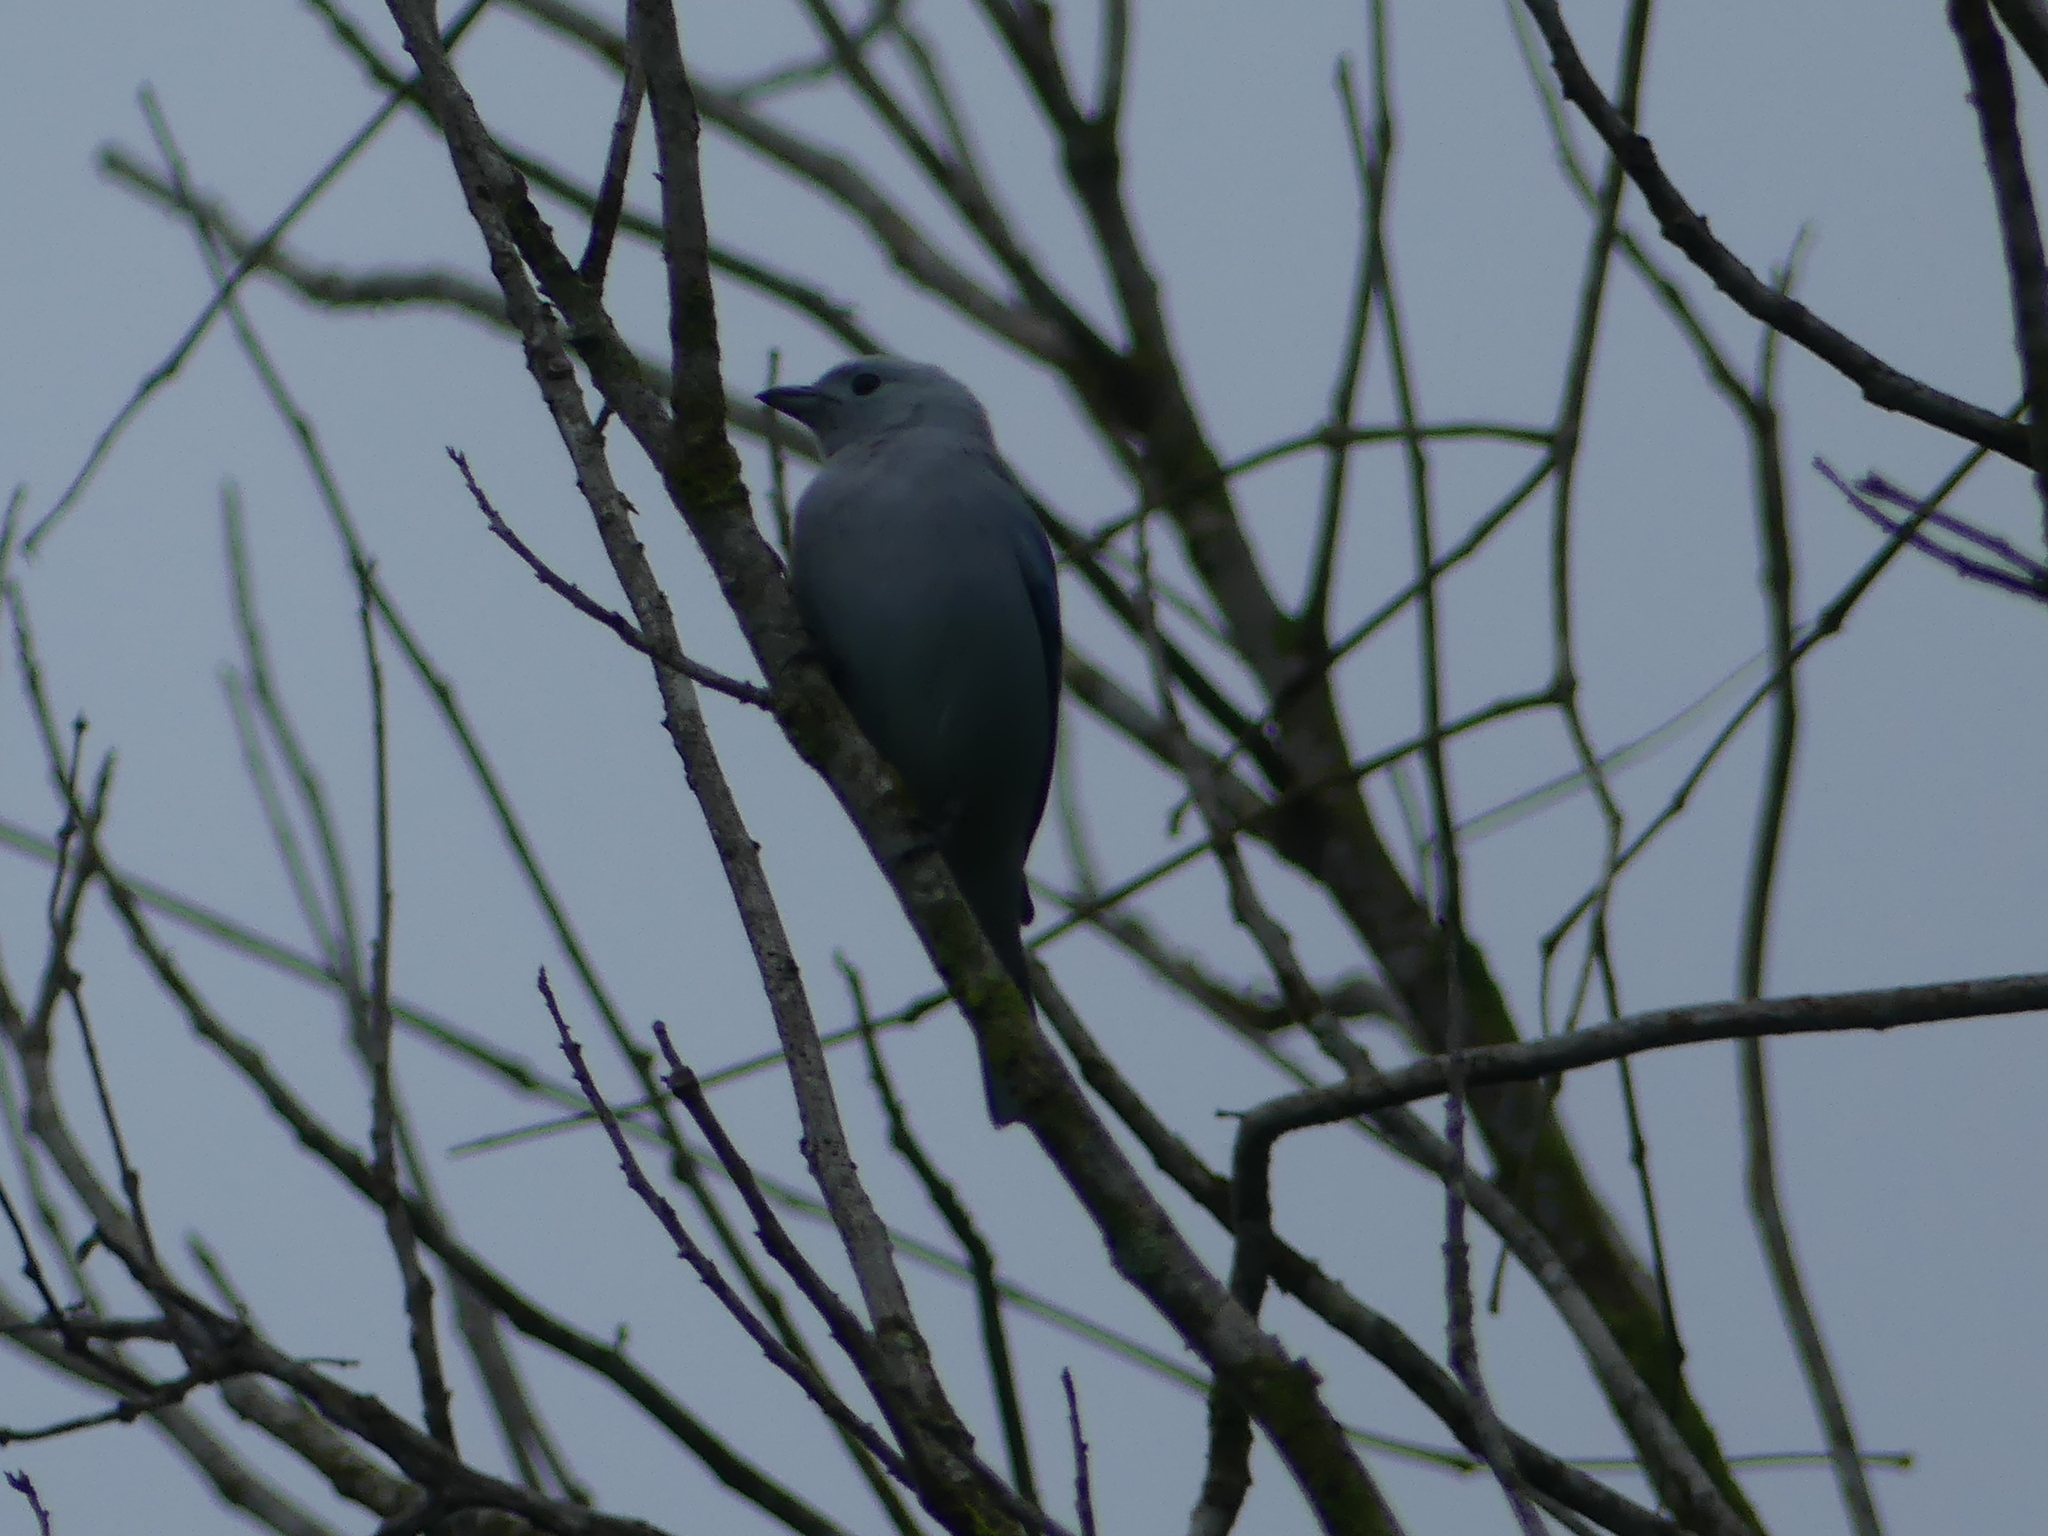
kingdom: Animalia
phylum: Chordata
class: Aves
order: Passeriformes
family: Thraupidae
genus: Thraupis
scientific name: Thraupis episcopus
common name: Blue-grey tanager
